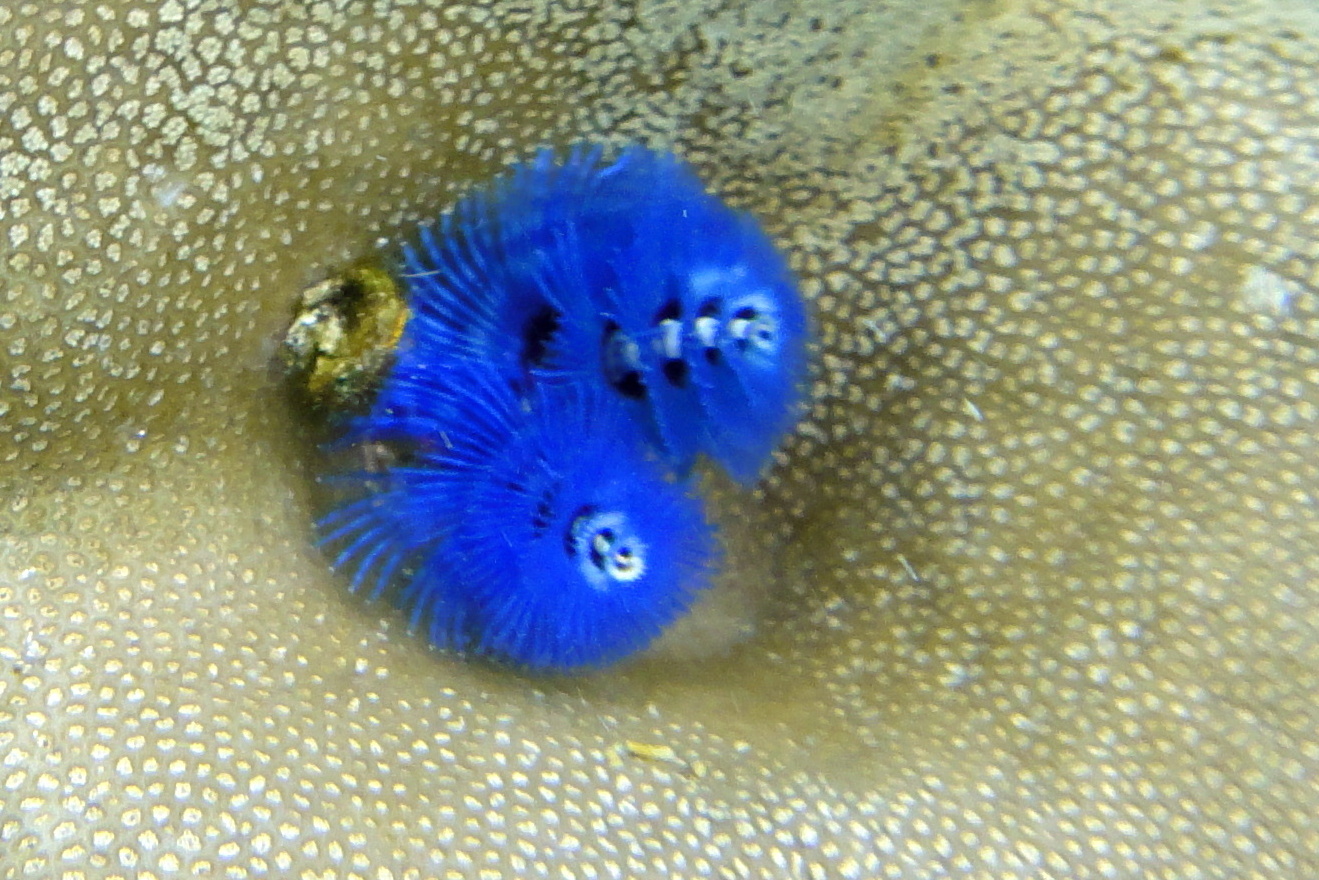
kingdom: Animalia
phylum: Annelida
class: Polychaeta
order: Sabellida
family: Serpulidae
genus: Spirobranchus
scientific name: Spirobranchus
